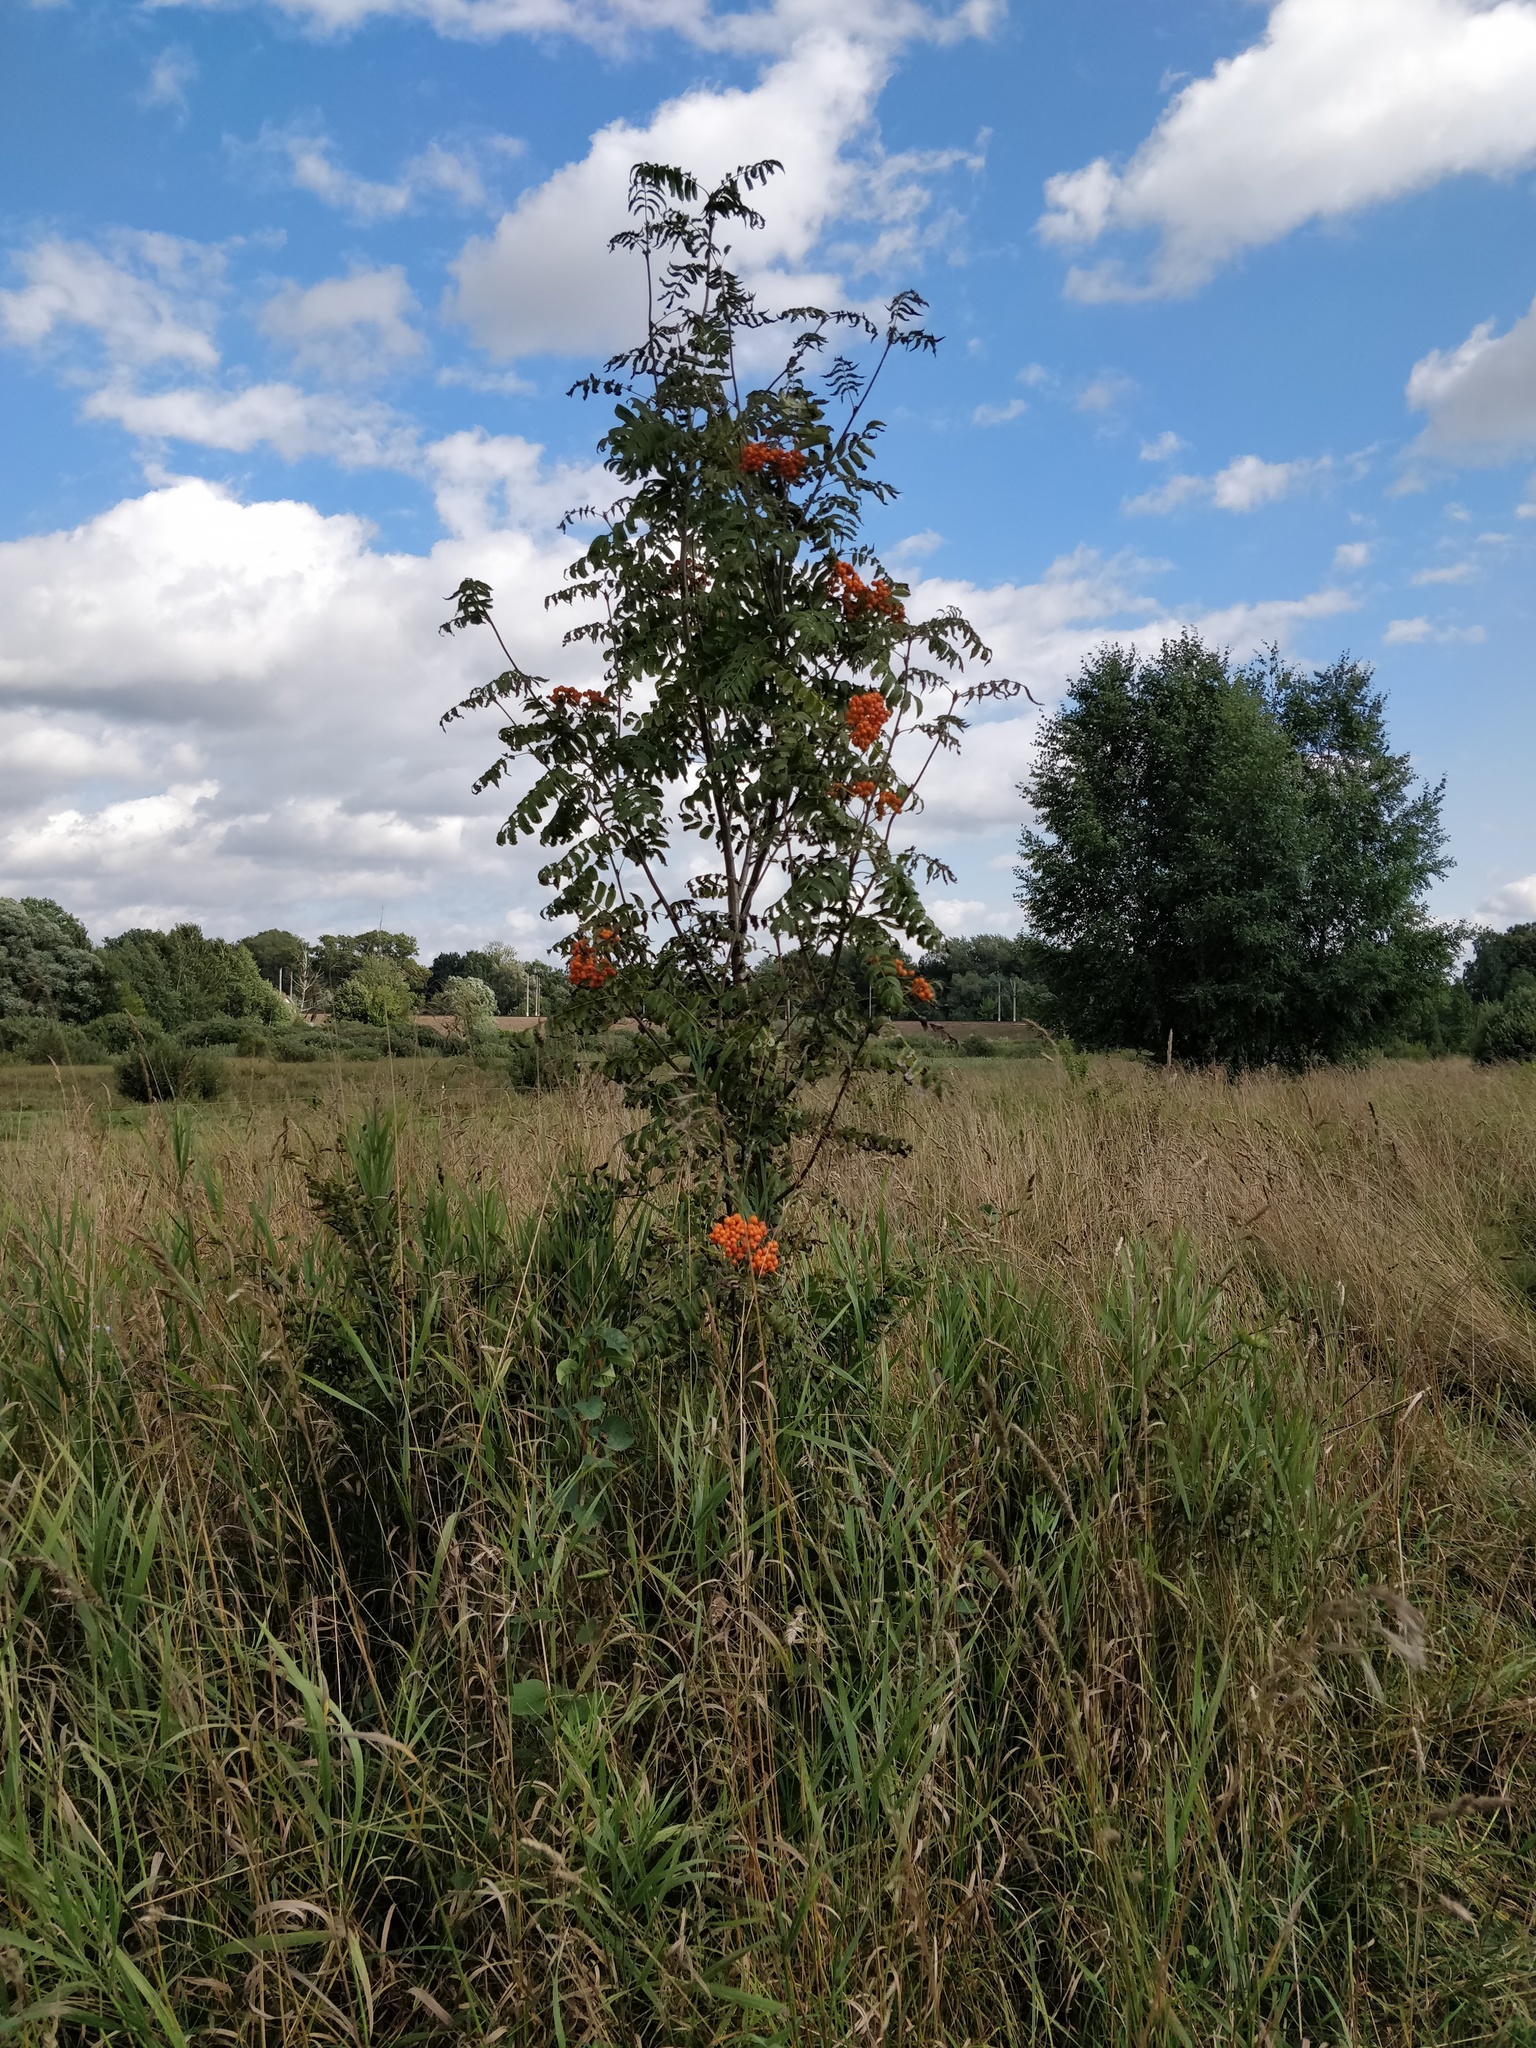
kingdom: Plantae
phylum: Tracheophyta
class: Magnoliopsida
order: Rosales
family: Rosaceae
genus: Sorbus
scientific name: Sorbus aucuparia
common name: Rowan
